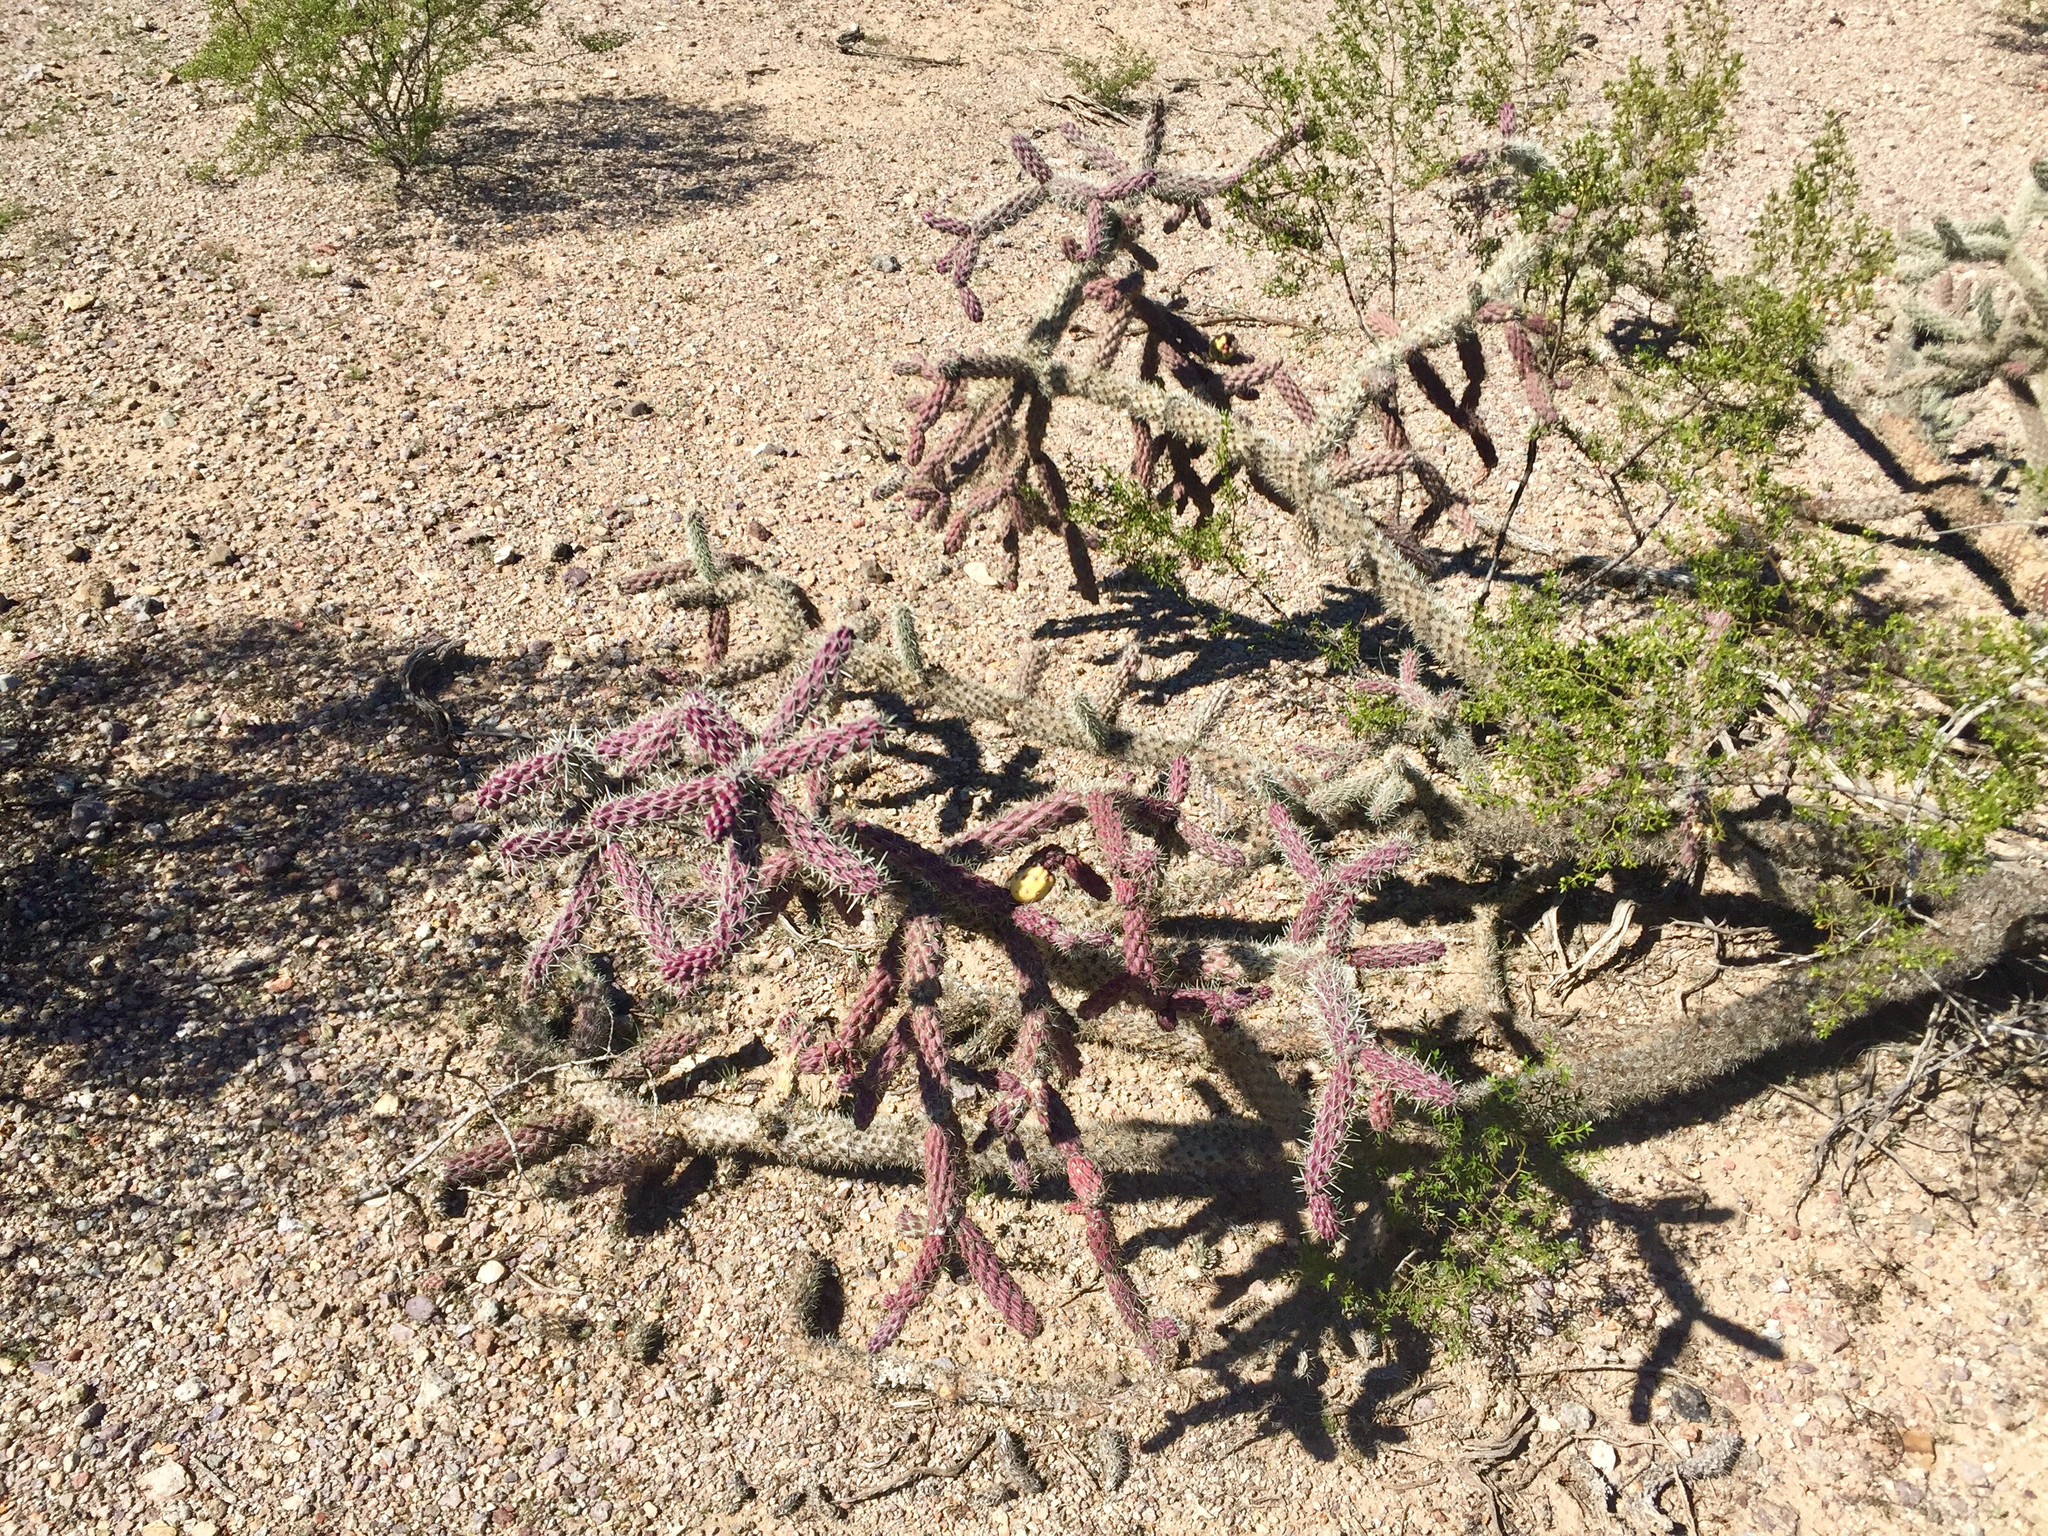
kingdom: Plantae
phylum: Tracheophyta
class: Magnoliopsida
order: Caryophyllales
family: Cactaceae
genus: Cylindropuntia
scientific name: Cylindropuntia imbricata
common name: Candelabrum cactus
